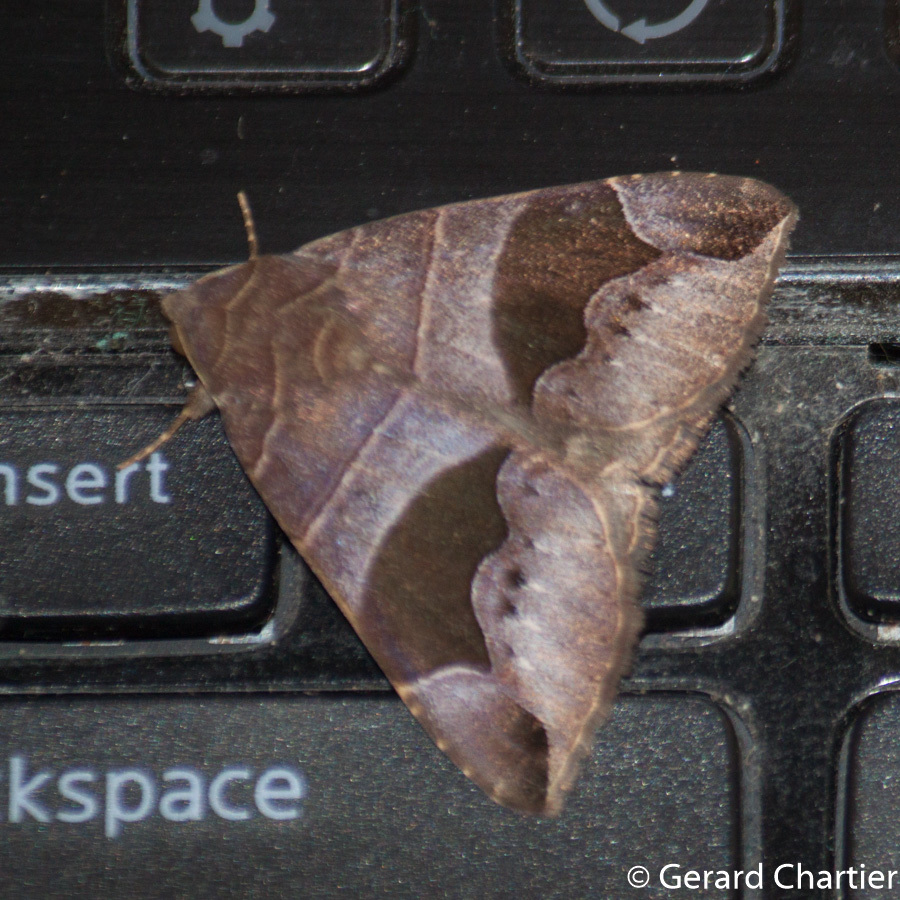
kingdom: Animalia
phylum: Arthropoda
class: Insecta
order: Lepidoptera
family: Erebidae
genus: Bastilla
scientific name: Bastilla joviana
